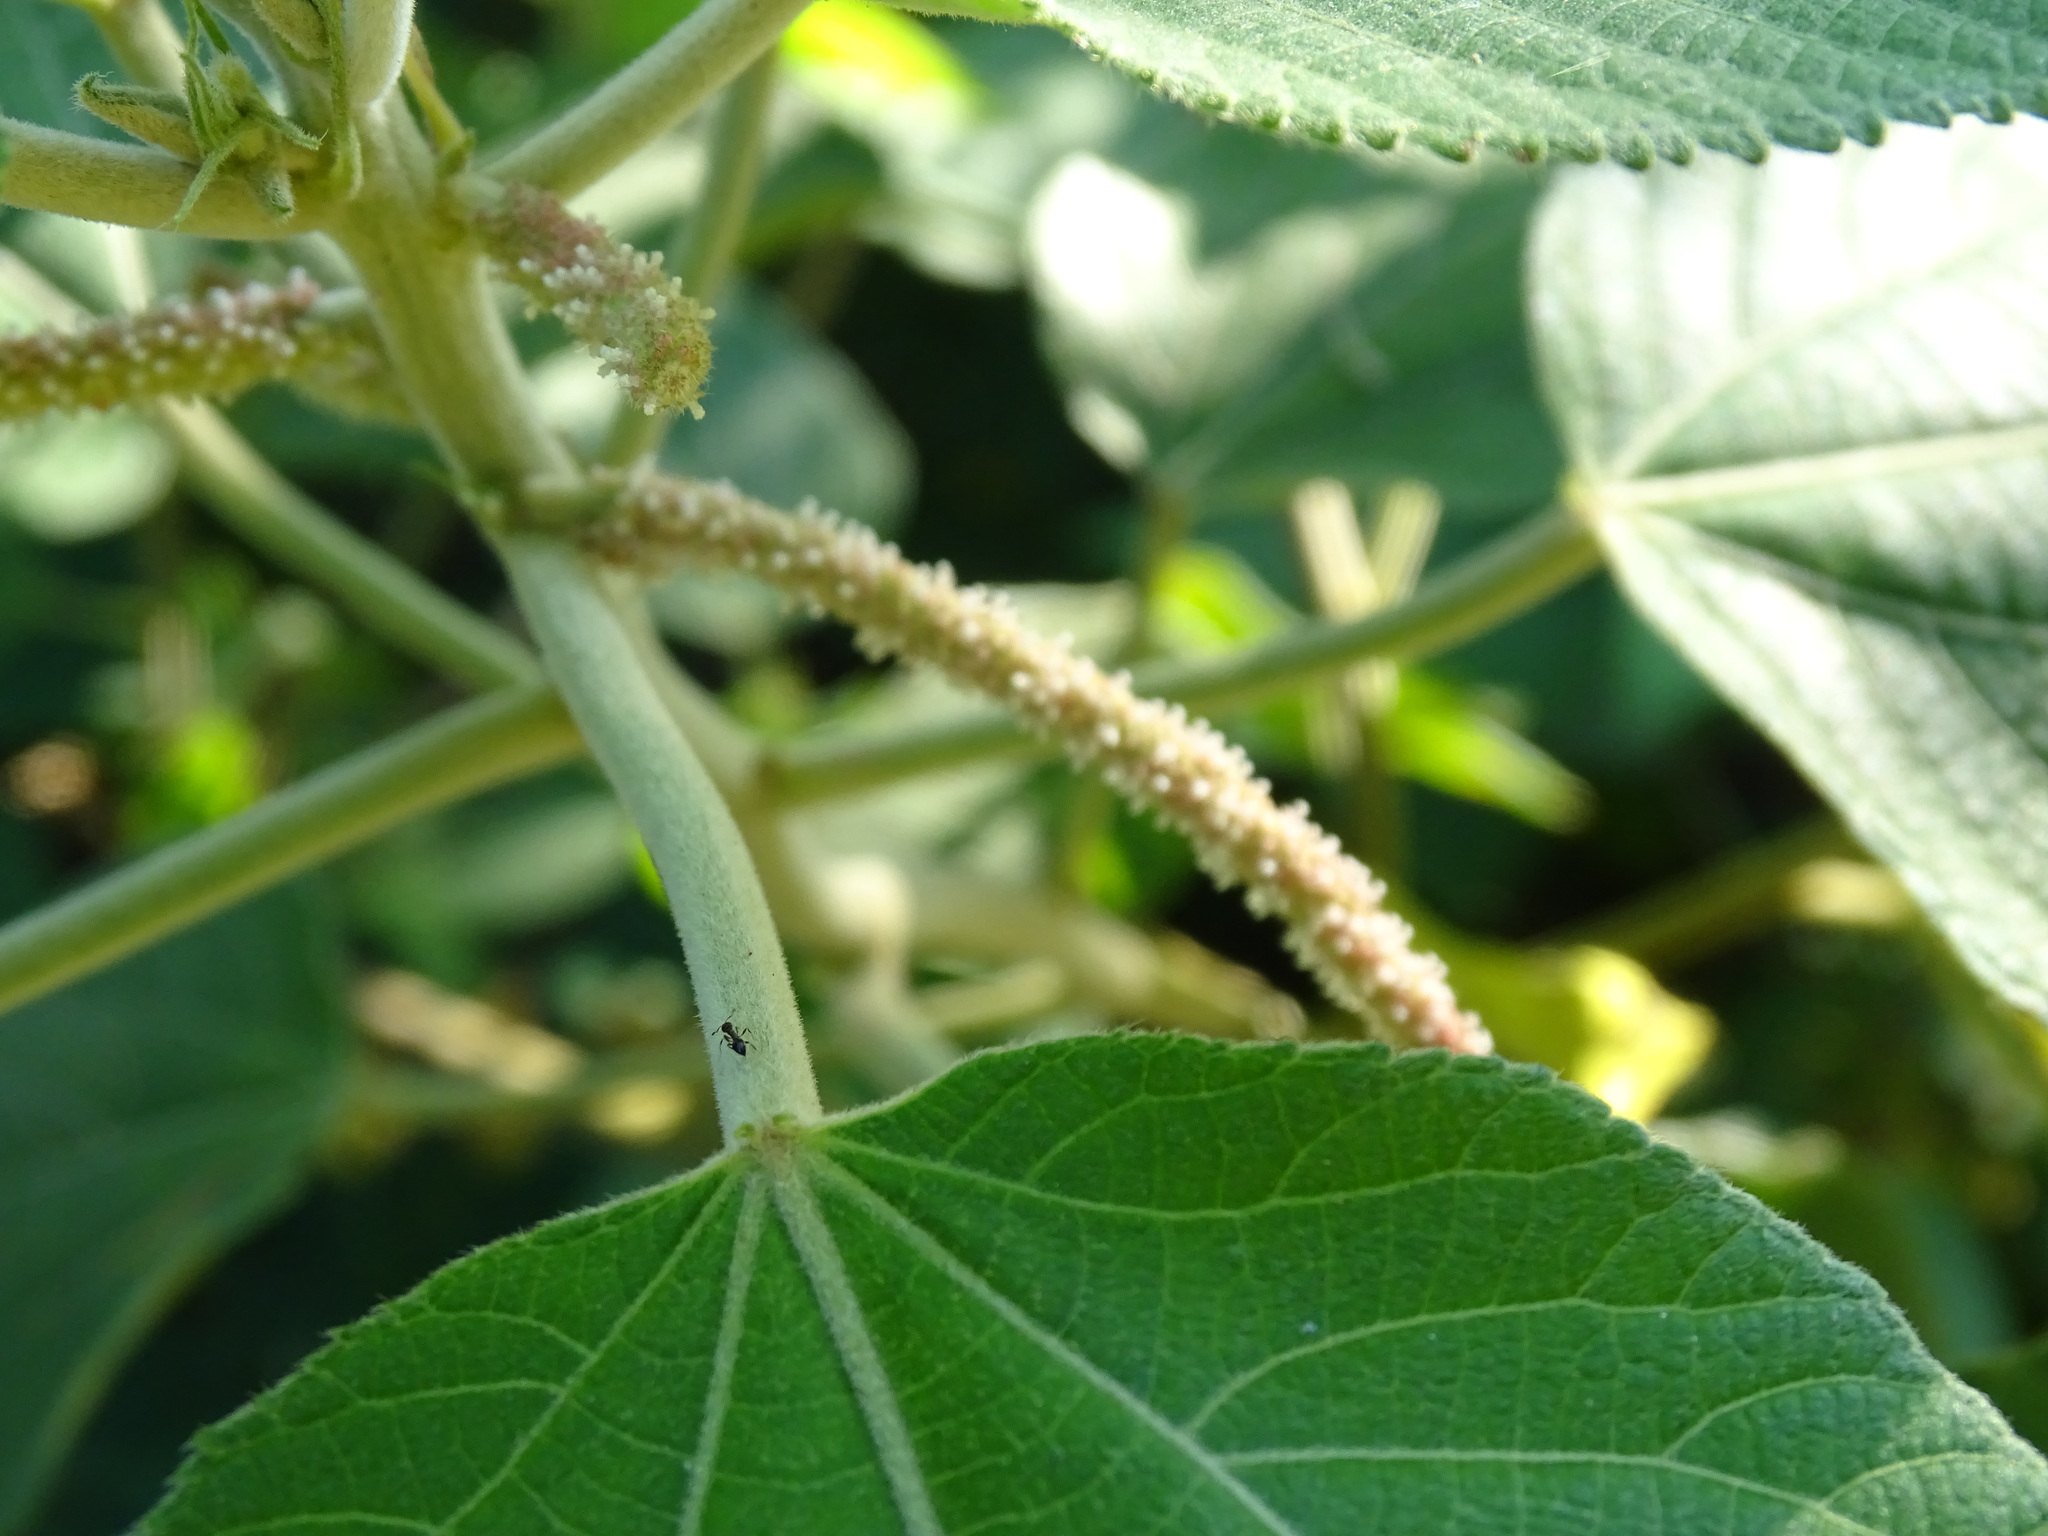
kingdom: Plantae
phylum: Tracheophyta
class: Magnoliopsida
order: Malpighiales
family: Euphorbiaceae
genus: Acalypha
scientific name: Acalypha macrostachyoides
